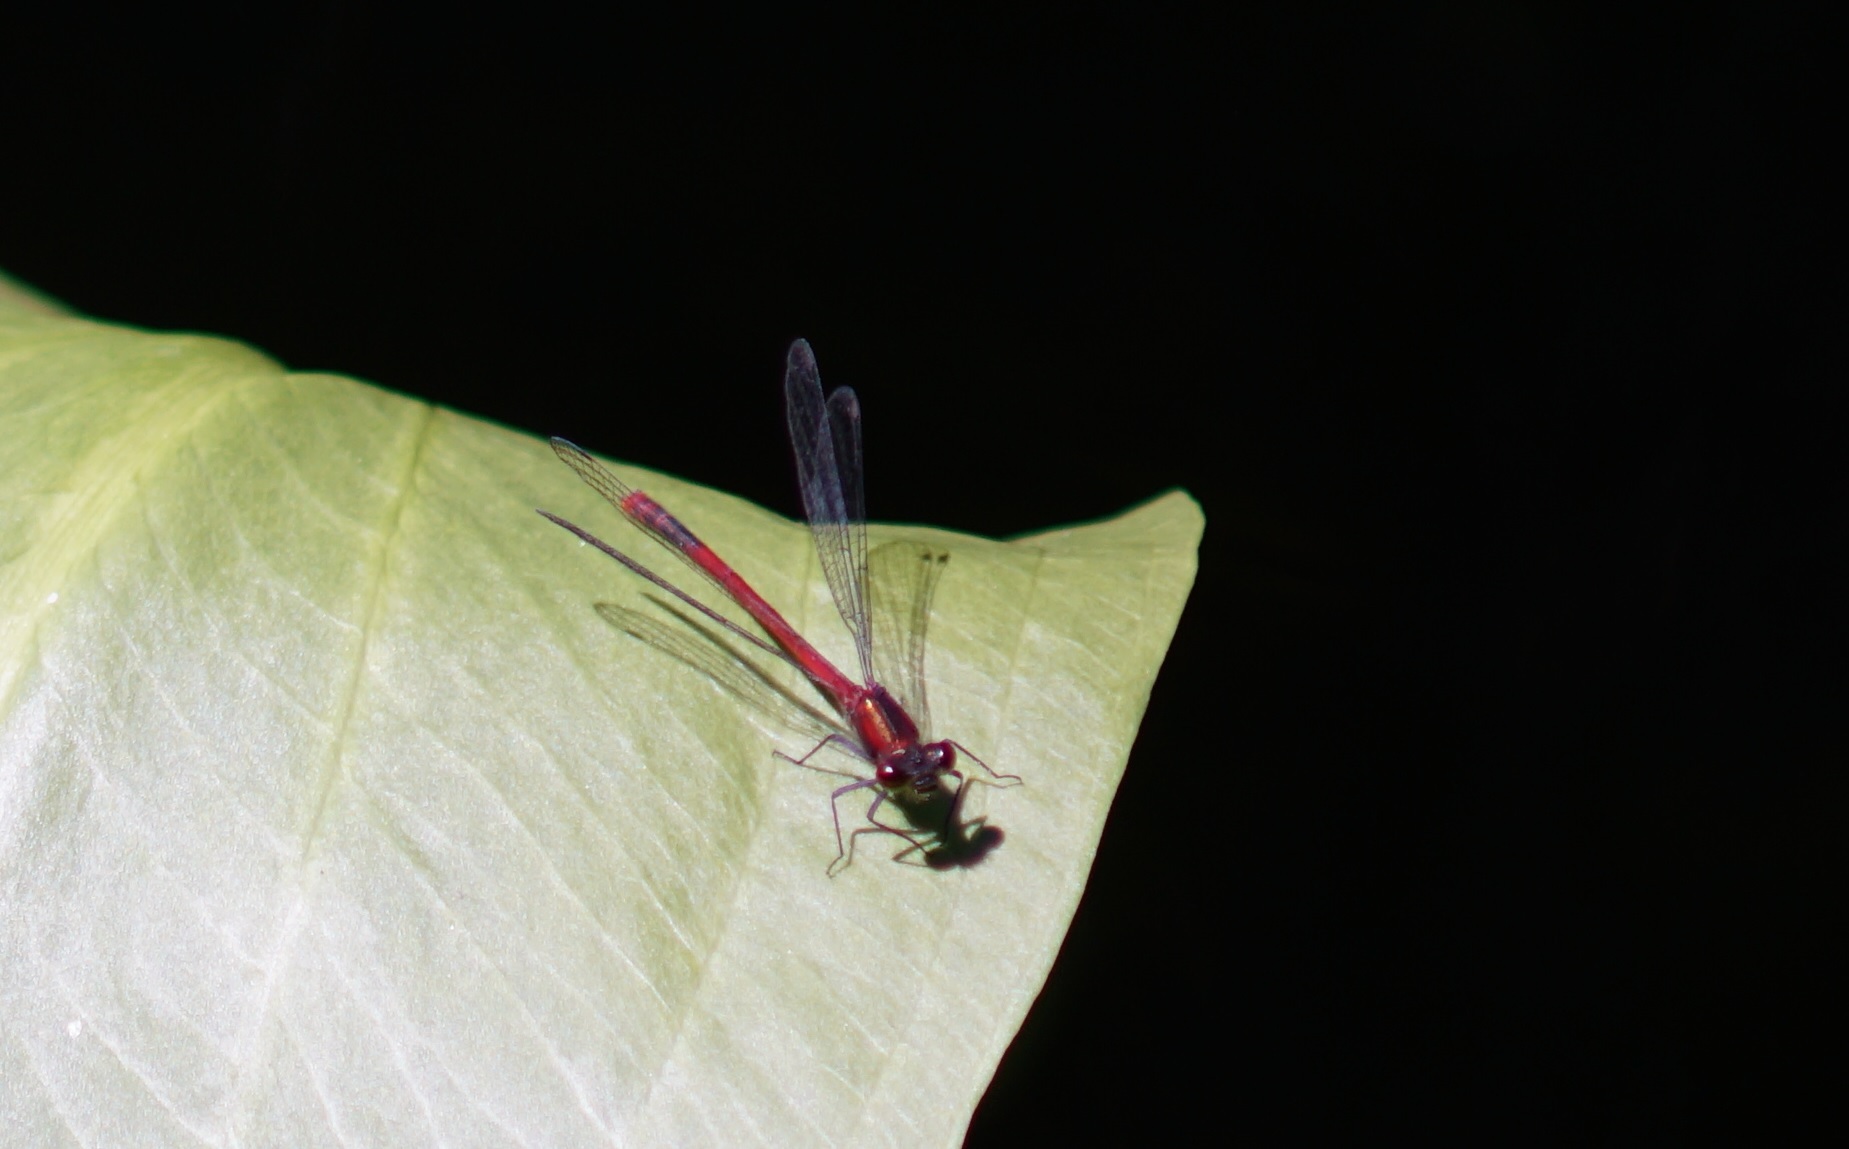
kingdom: Animalia
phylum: Arthropoda
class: Insecta
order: Odonata
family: Coenagrionidae
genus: Pyrrhosoma
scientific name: Pyrrhosoma nymphula
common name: Large red damsel
